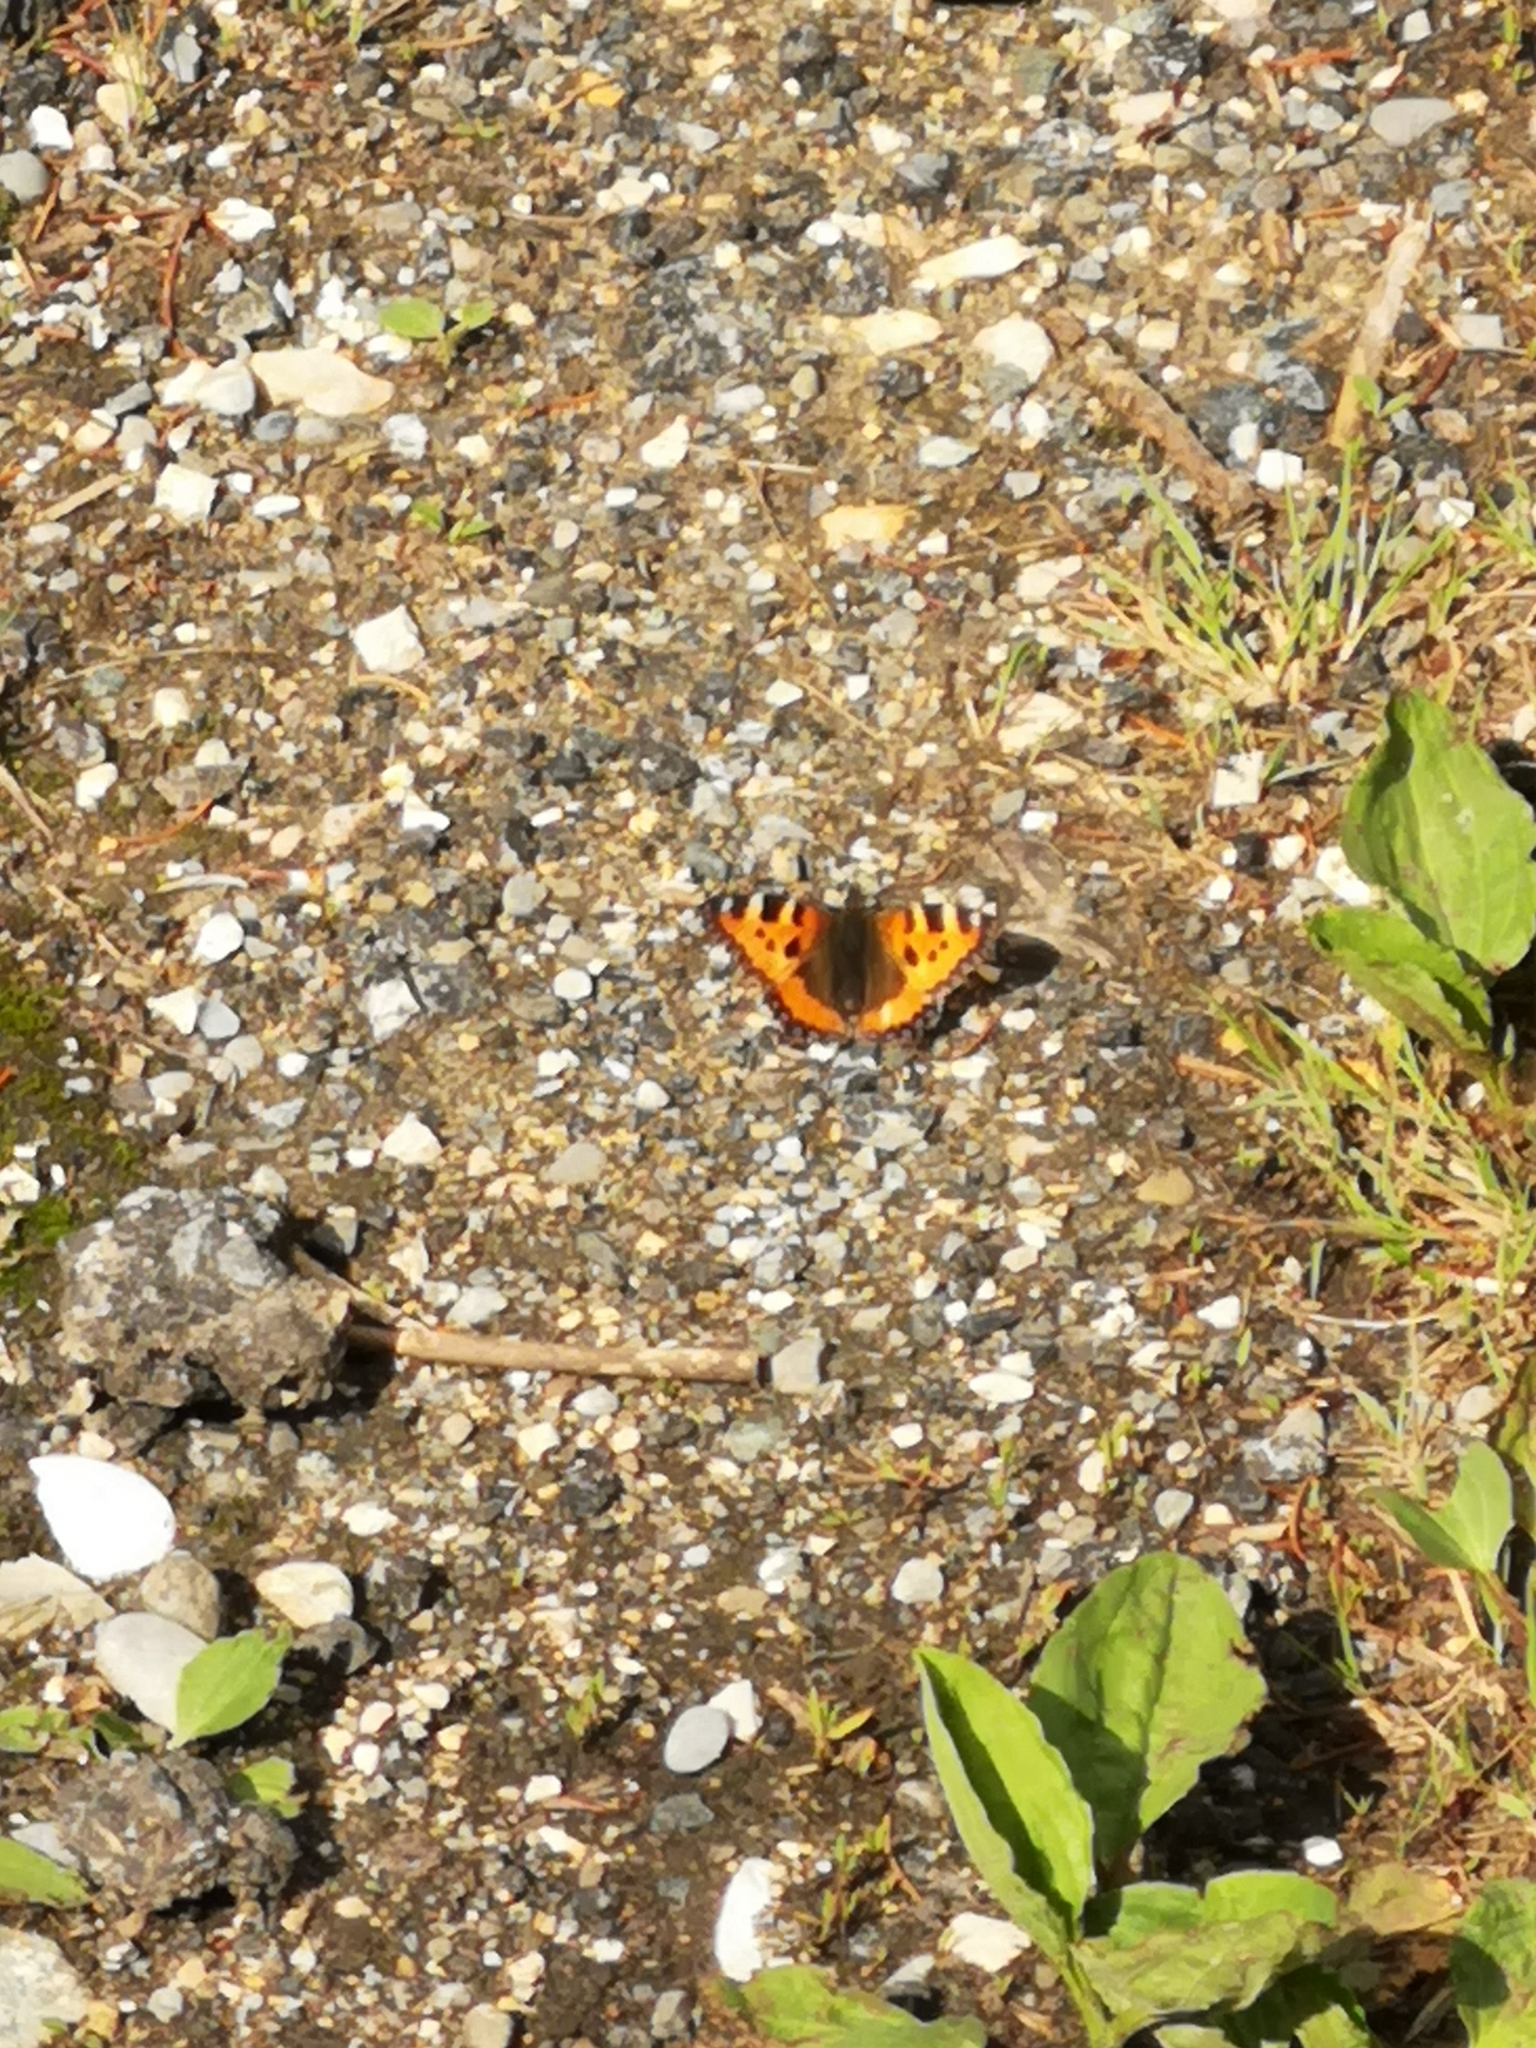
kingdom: Animalia
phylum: Arthropoda
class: Insecta
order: Lepidoptera
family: Nymphalidae
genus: Aglais
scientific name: Aglais urticae
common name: Small tortoiseshell
